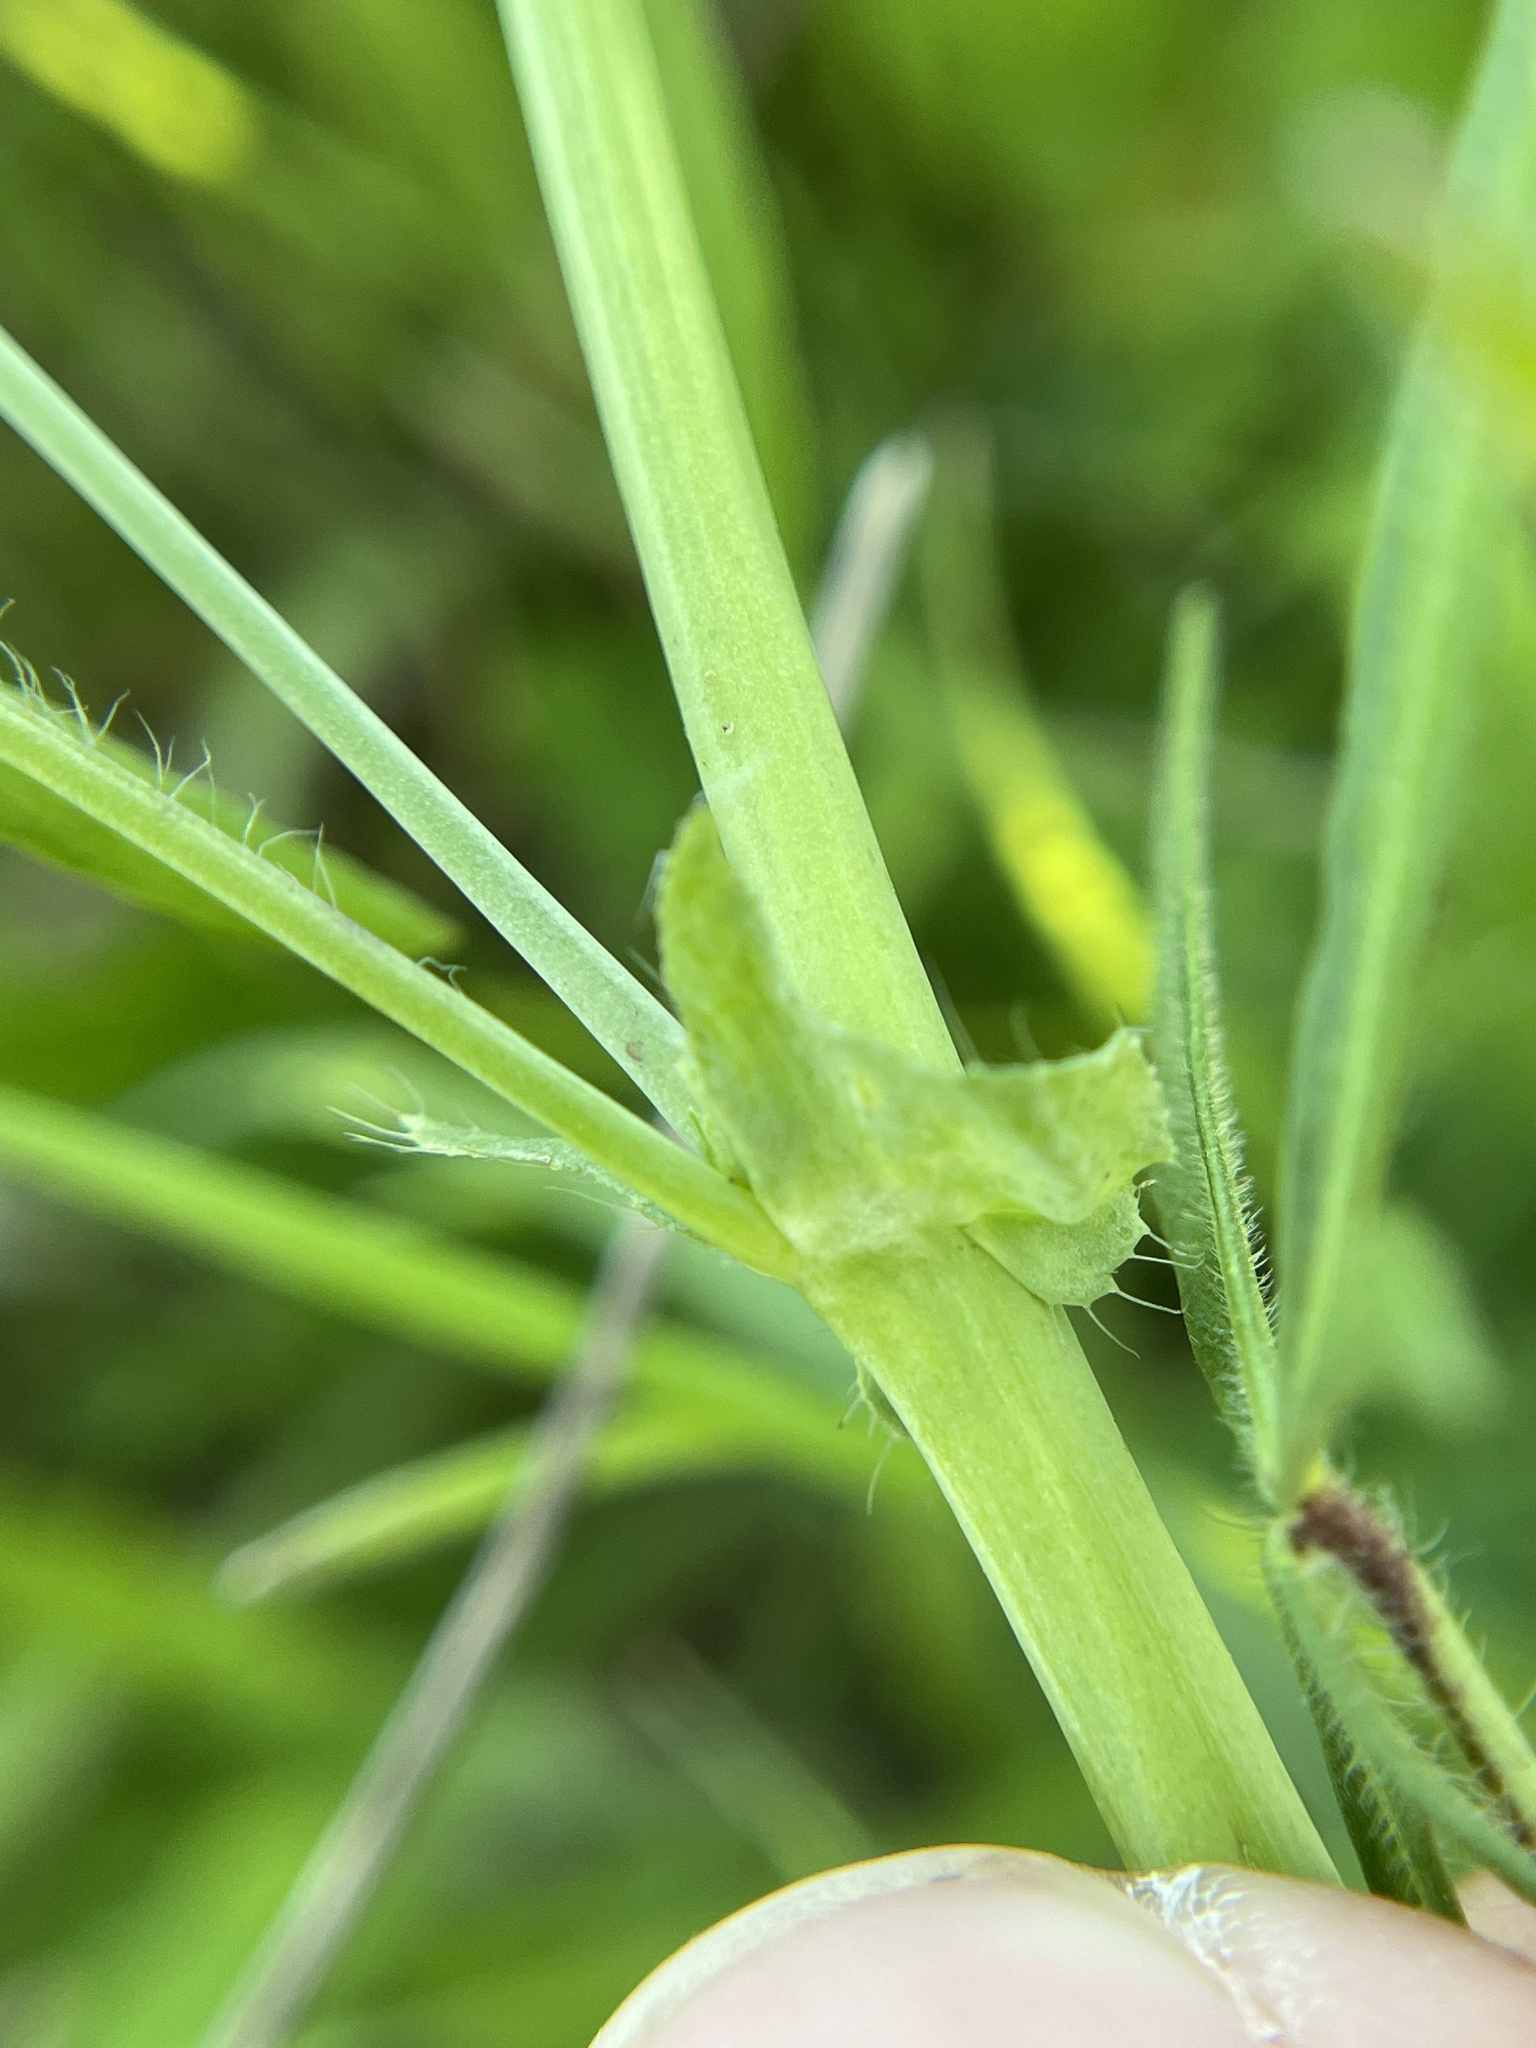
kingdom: Plantae
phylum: Tracheophyta
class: Magnoliopsida
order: Malvales
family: Malvaceae
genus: Callirhoe
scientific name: Callirhoe leiocarpa
